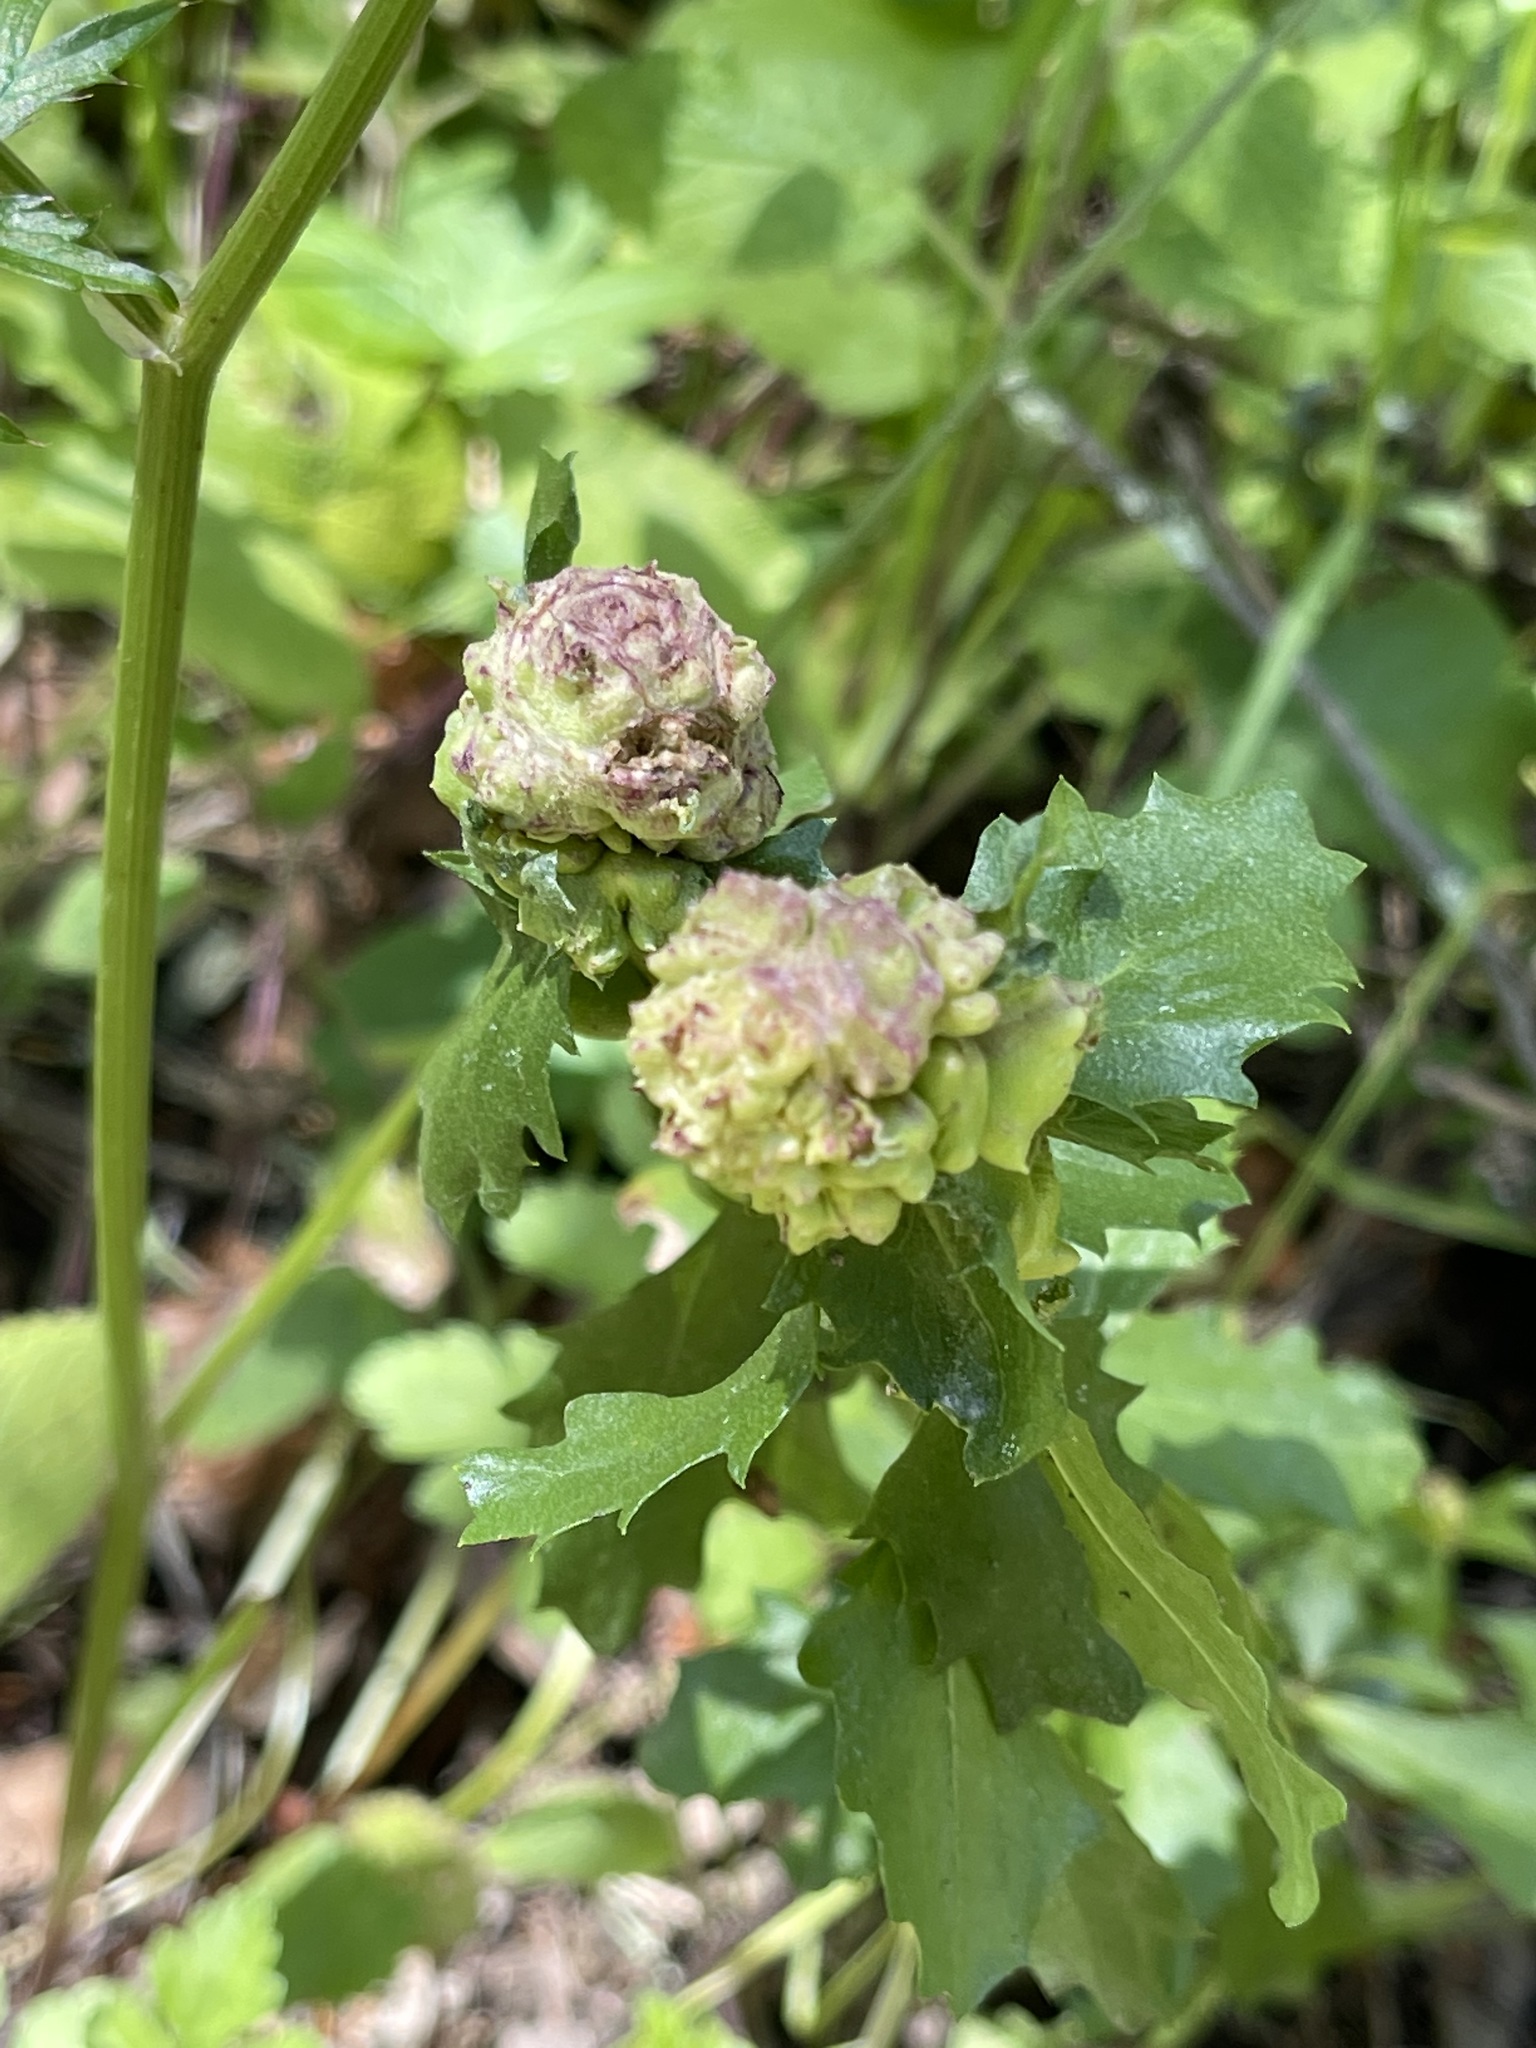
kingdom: Animalia
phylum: Arthropoda
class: Insecta
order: Diptera
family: Cecidomyiidae
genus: Rhopalomyia
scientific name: Rhopalomyia californica
